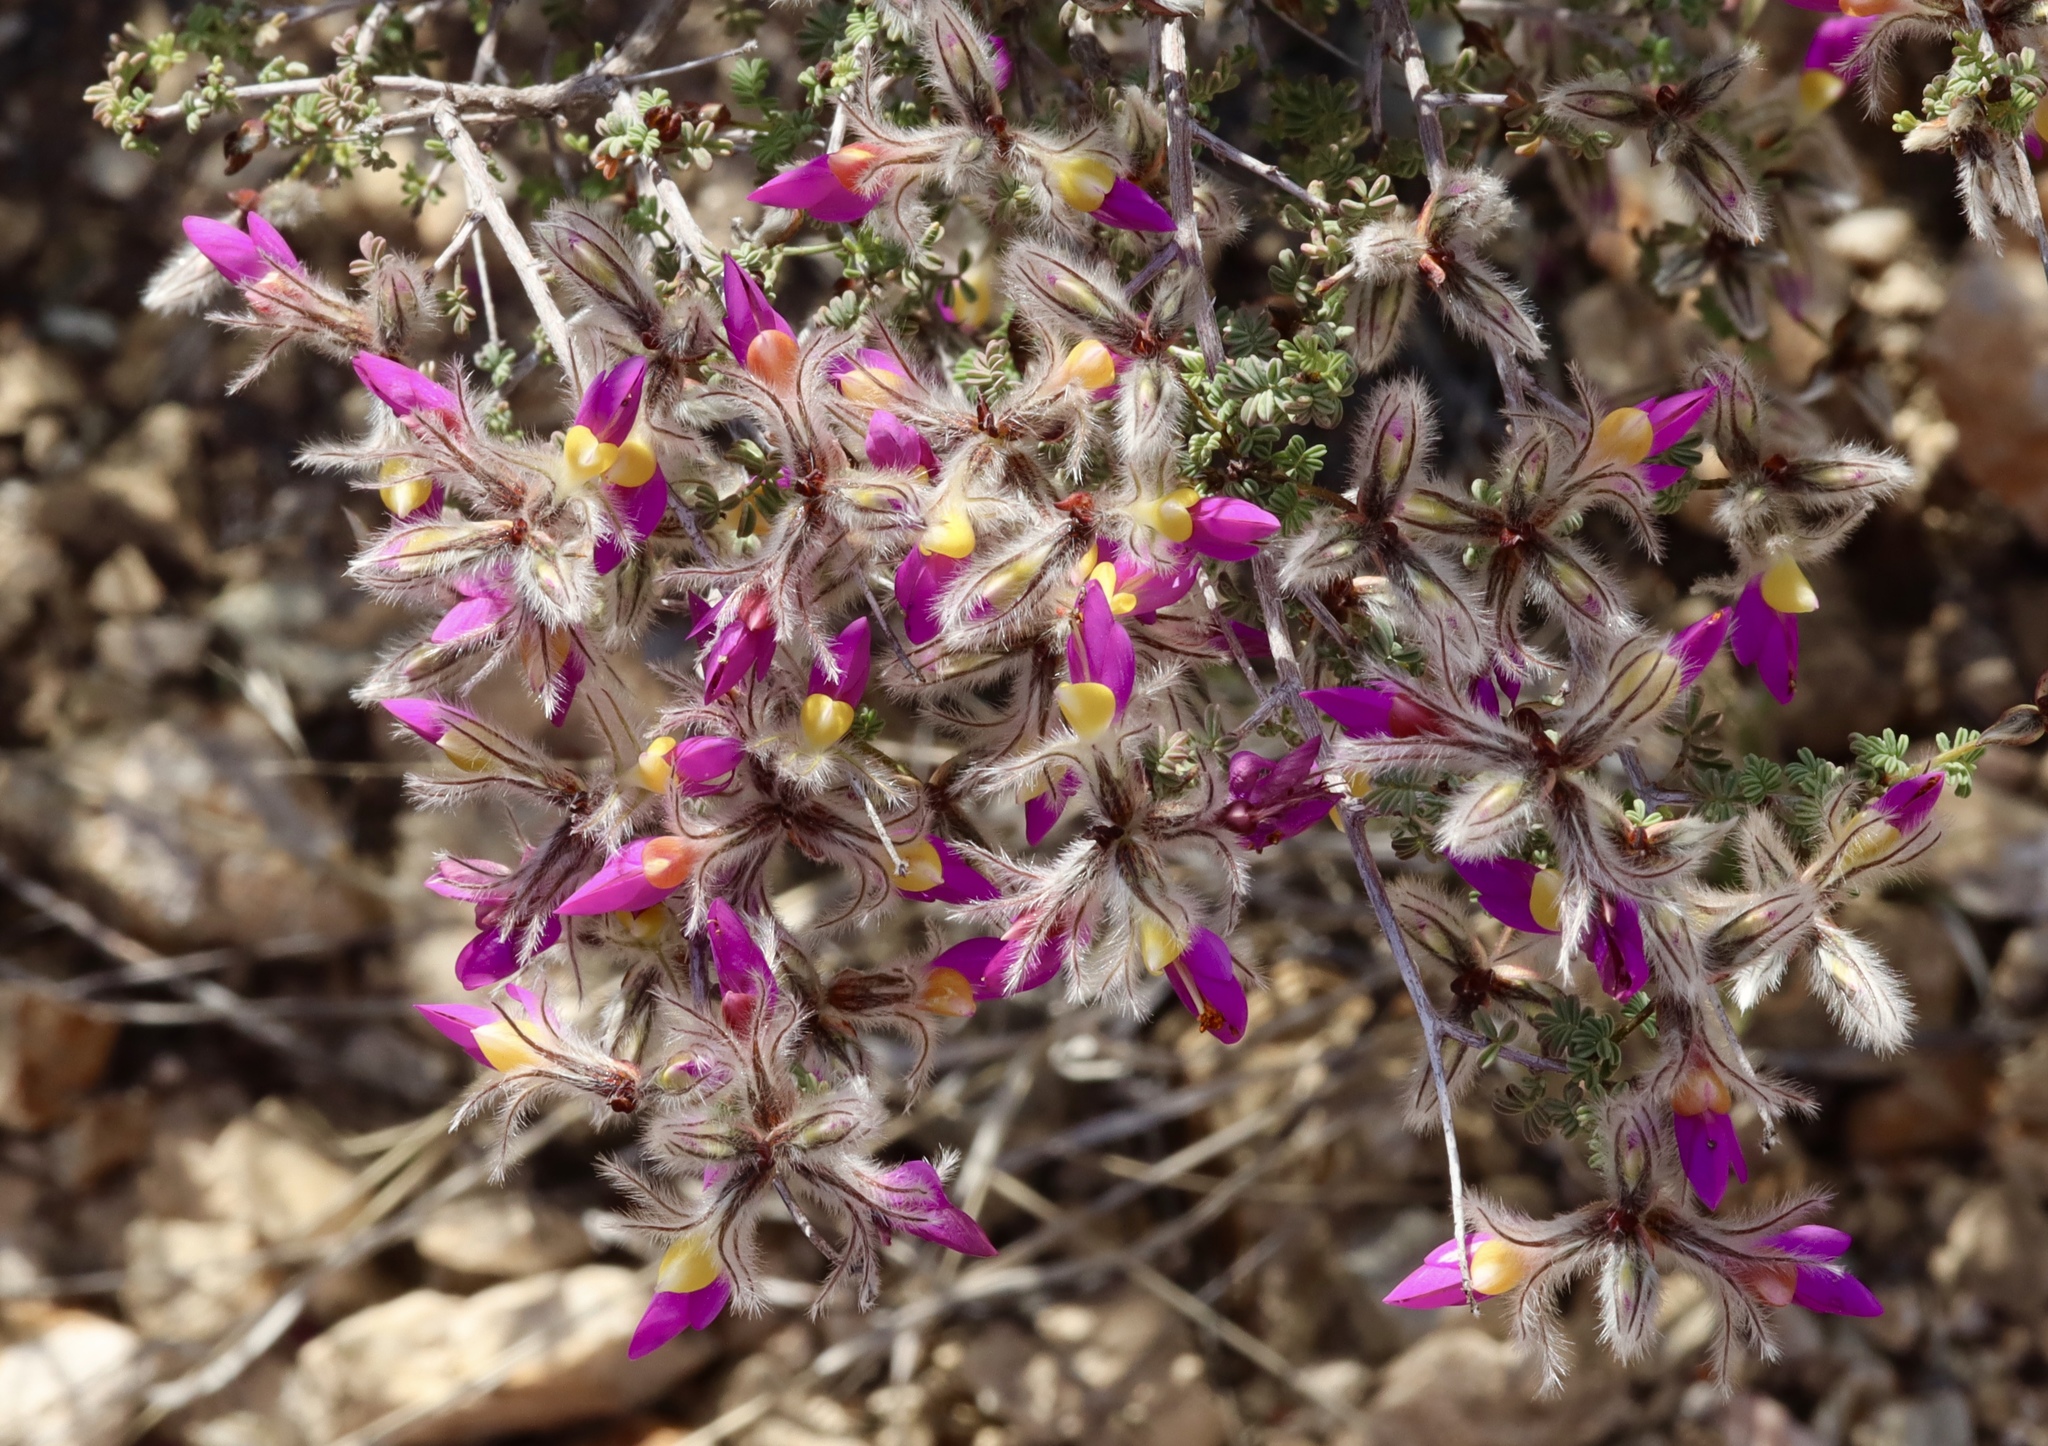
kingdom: Plantae
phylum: Tracheophyta
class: Magnoliopsida
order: Fabales
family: Fabaceae
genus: Dalea
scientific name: Dalea formosa
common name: Feather-plume dalea
